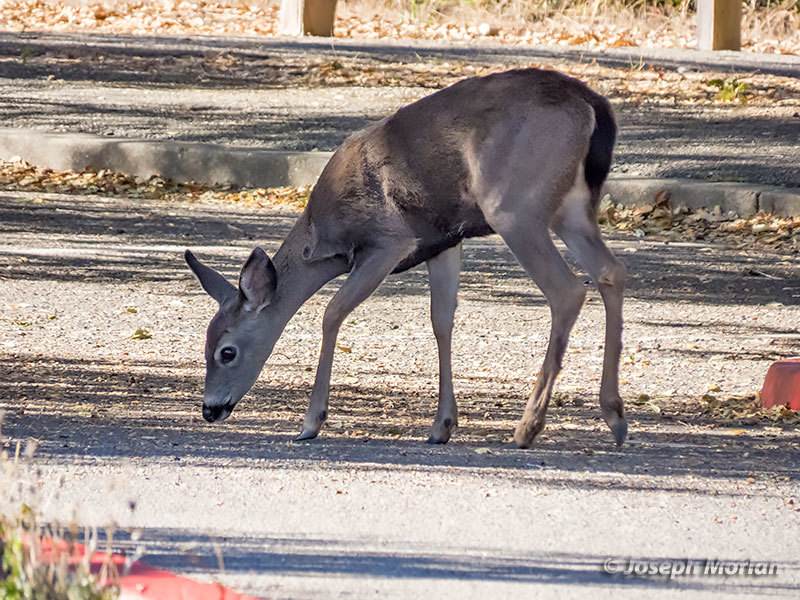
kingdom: Animalia
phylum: Chordata
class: Mammalia
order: Artiodactyla
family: Cervidae
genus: Odocoileus
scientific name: Odocoileus hemionus
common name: Mule deer
